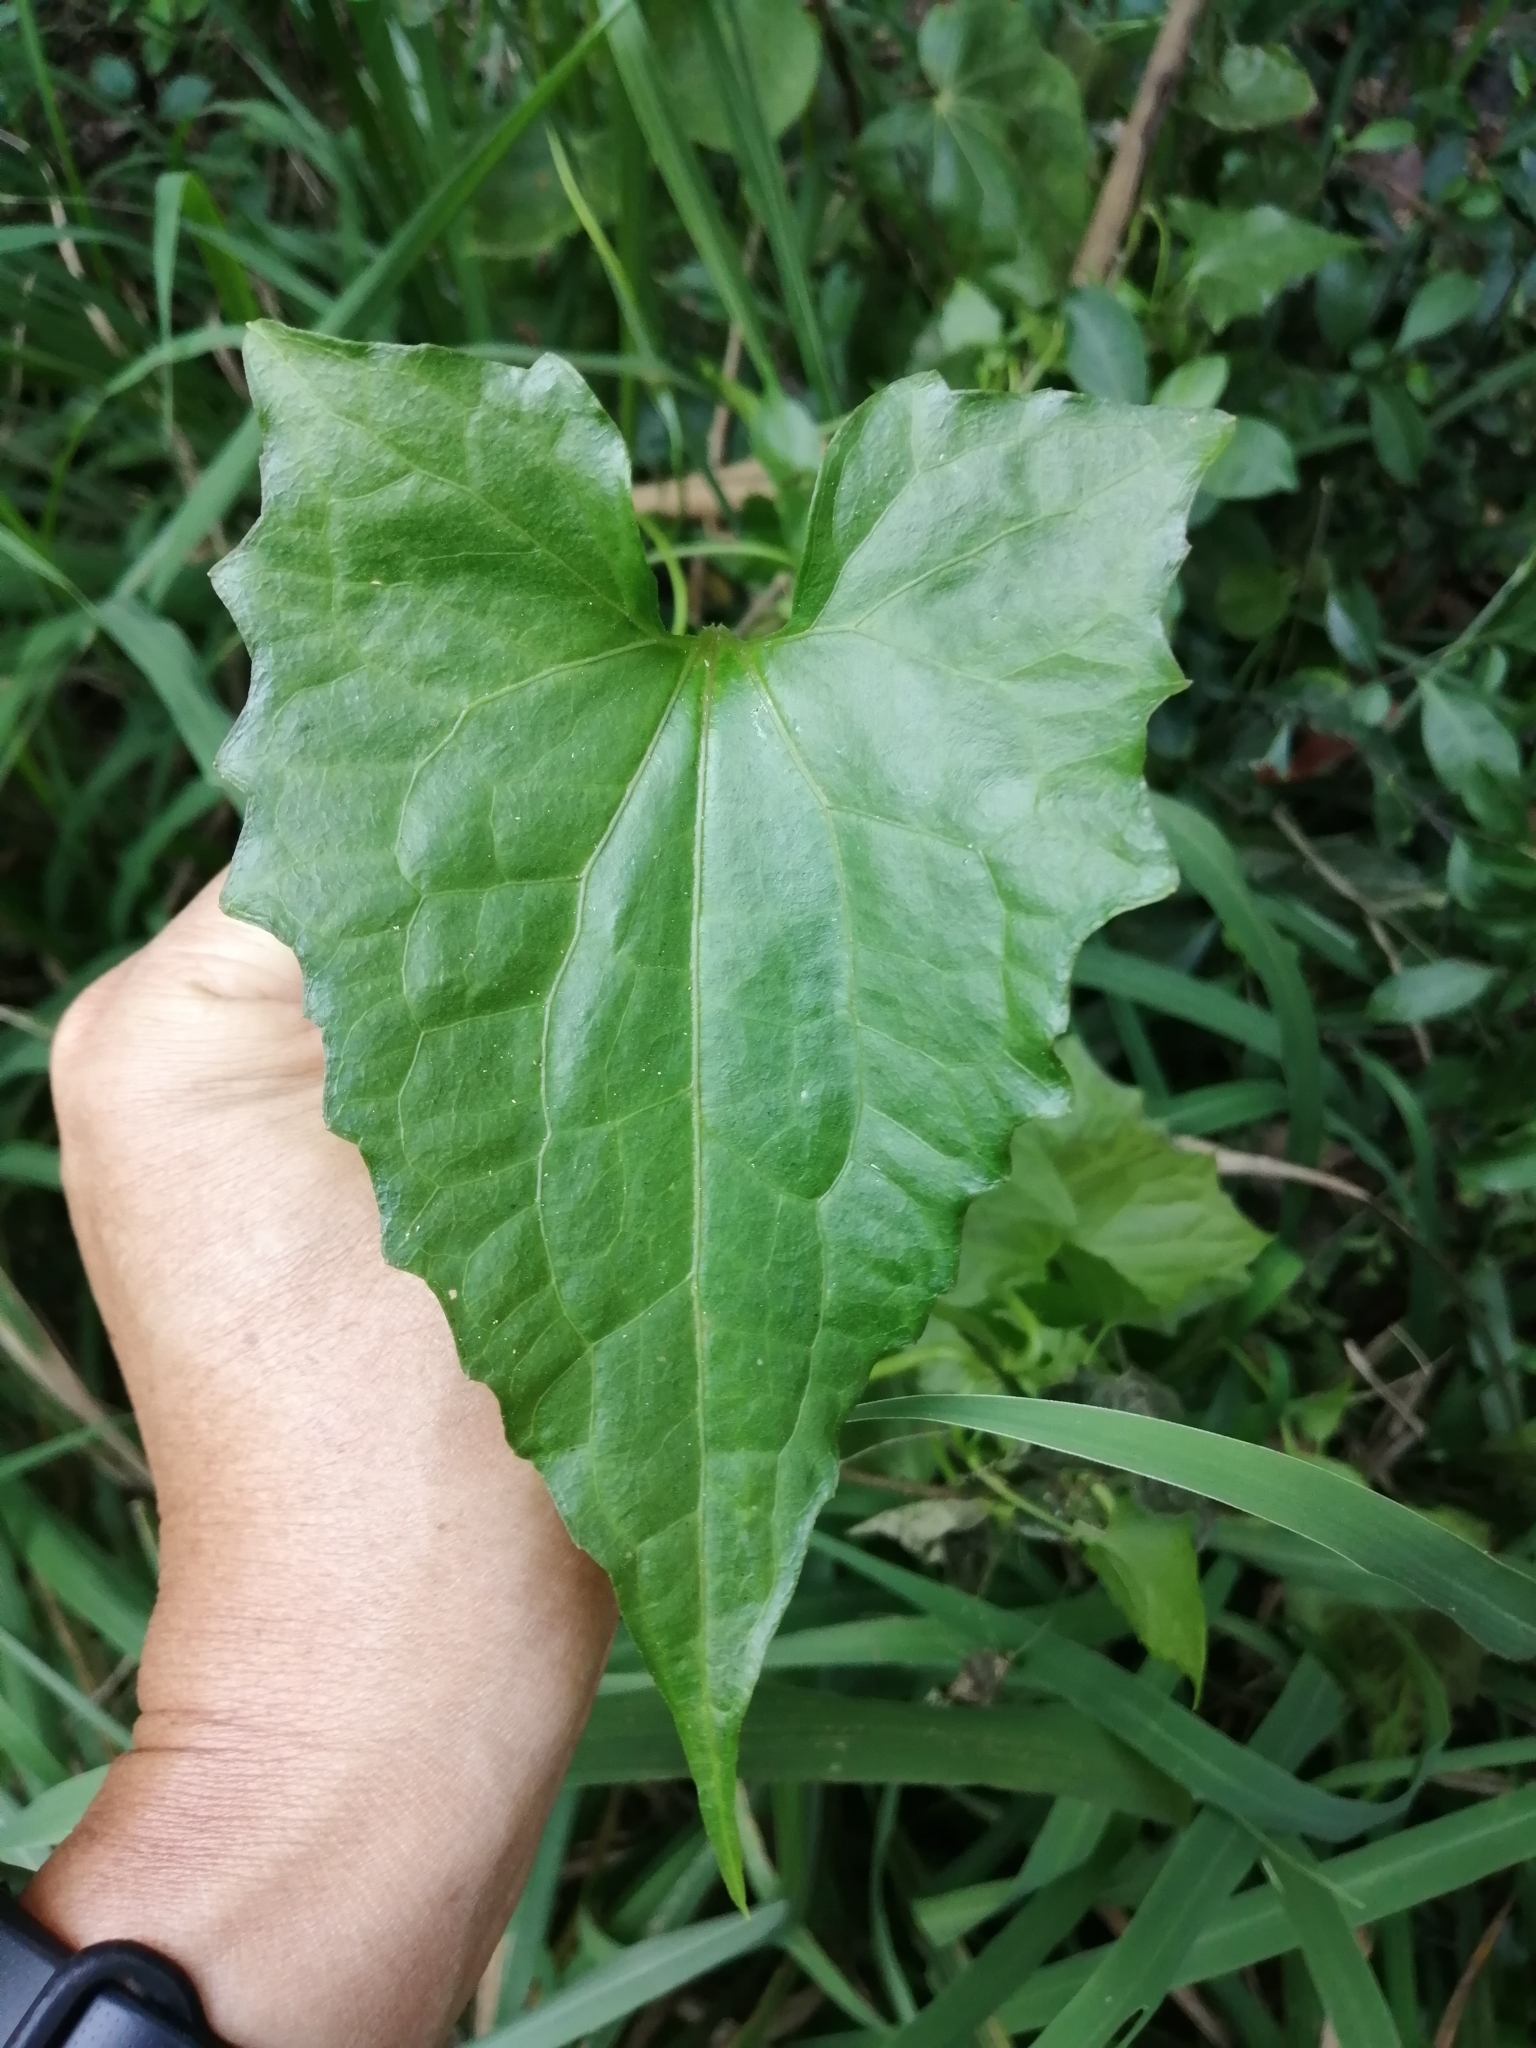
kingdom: Plantae
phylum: Tracheophyta
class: Magnoliopsida
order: Asterales
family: Asteraceae
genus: Mikania
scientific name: Mikania micrantha
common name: Mile-a-minute
